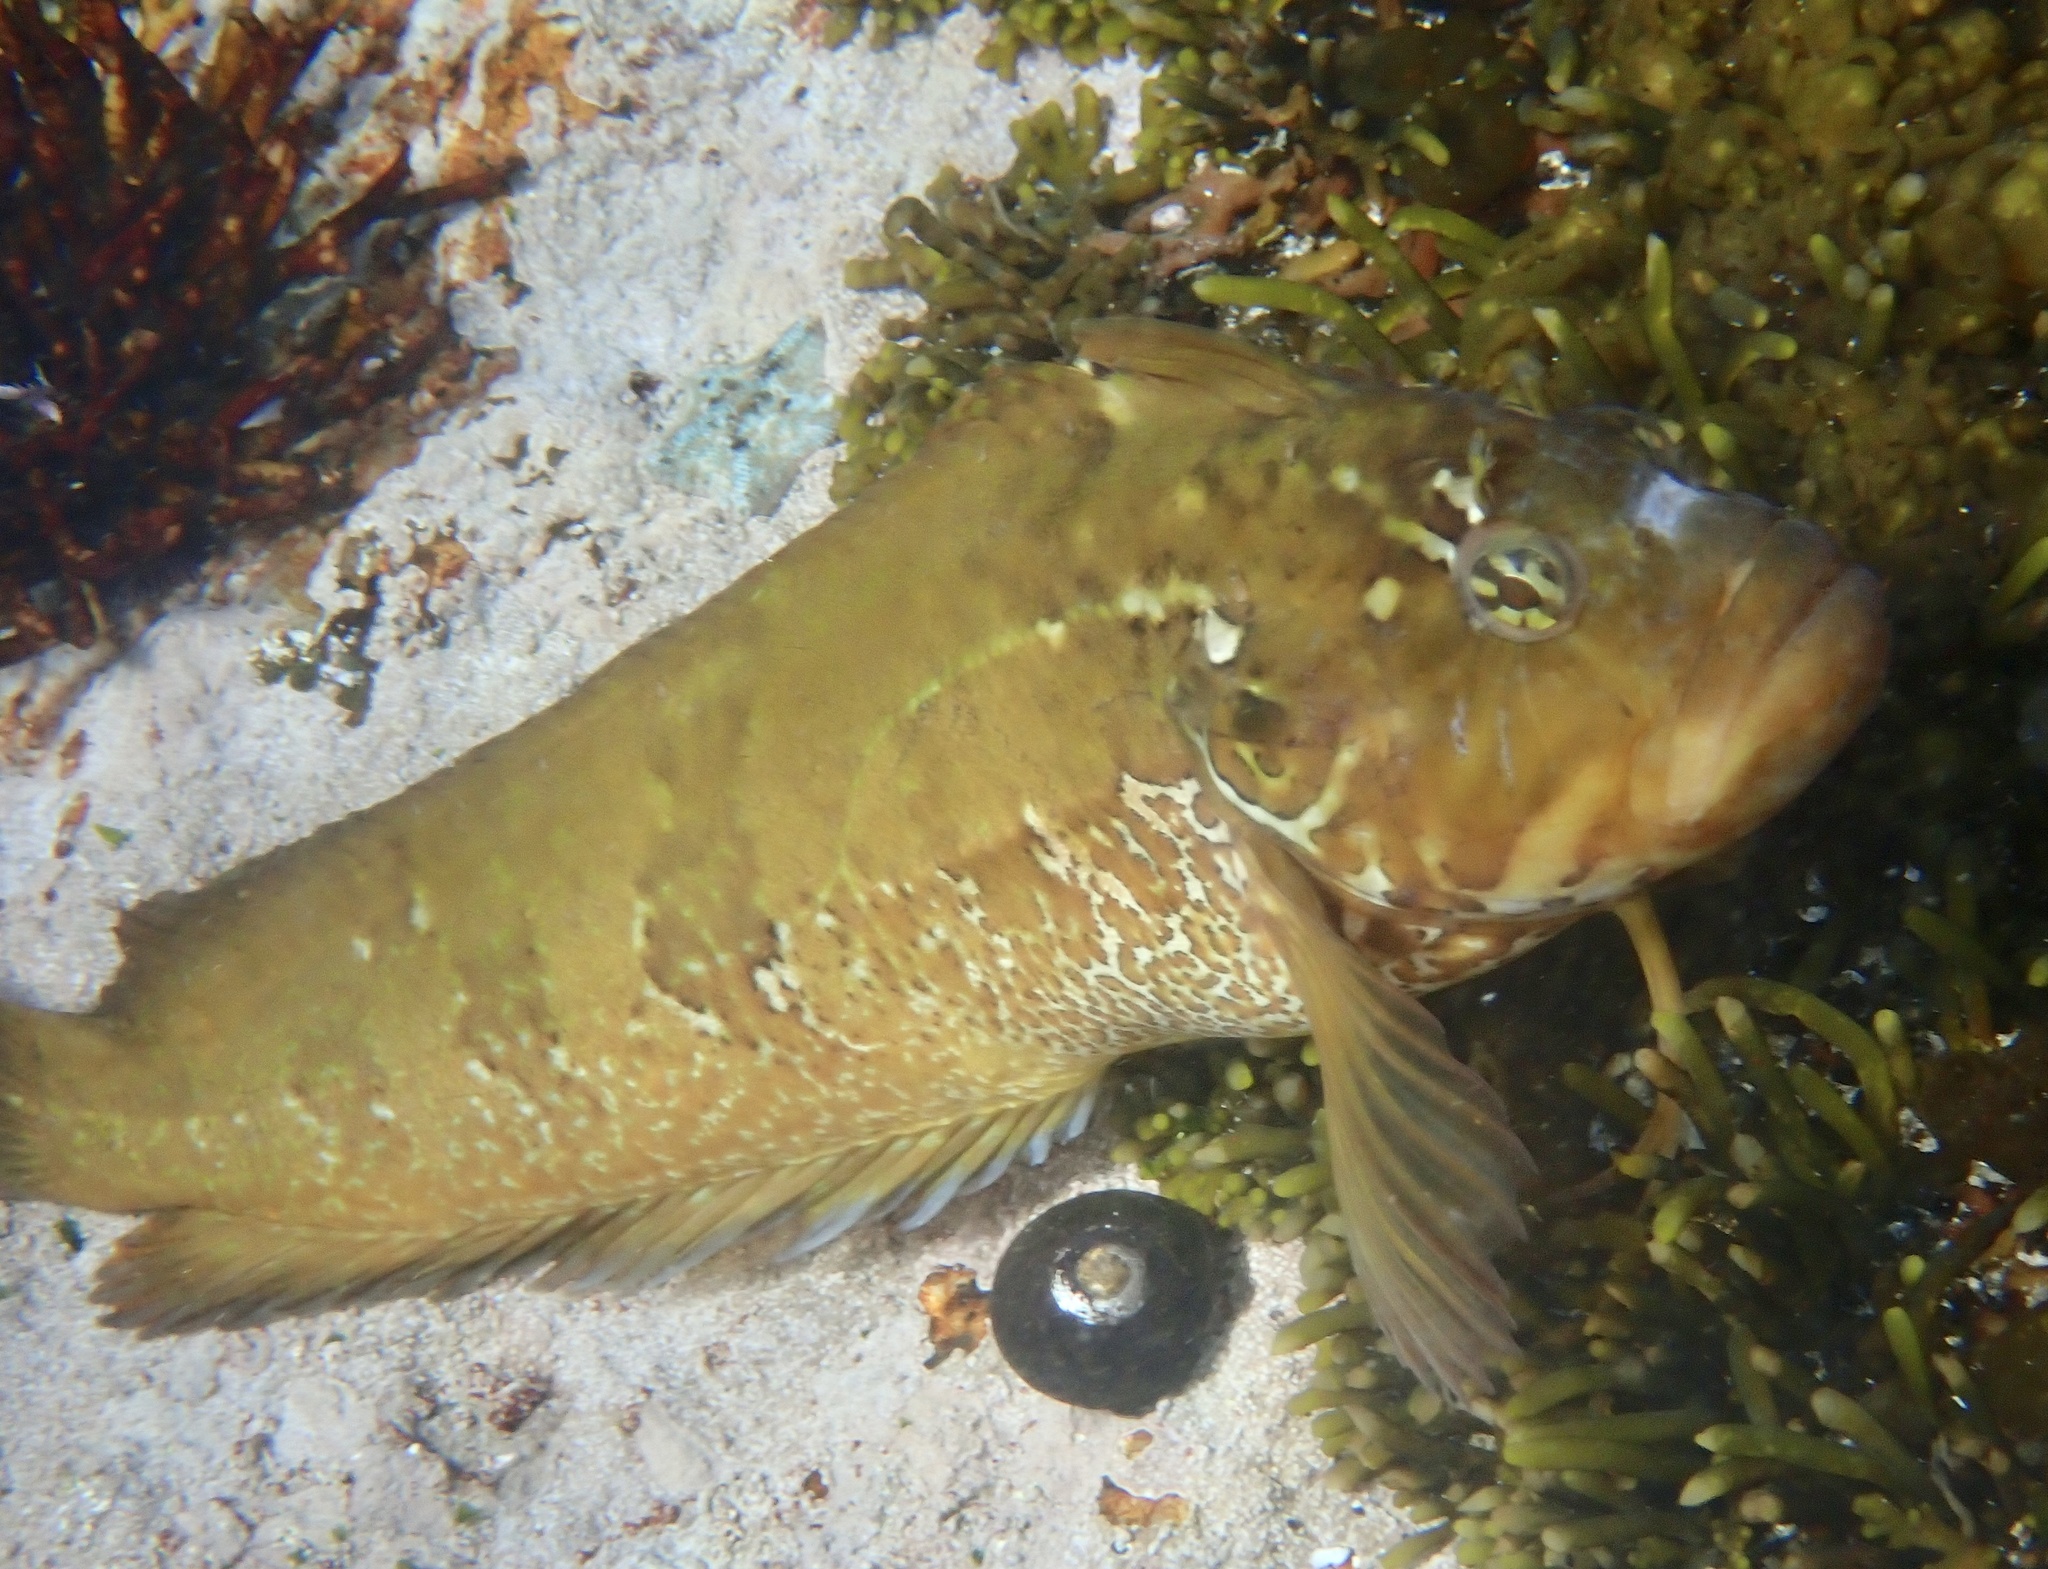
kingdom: Animalia
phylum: Chordata
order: Perciformes
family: Clinidae
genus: Clinus
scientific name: Clinus superciliosus
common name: Super klipfish
